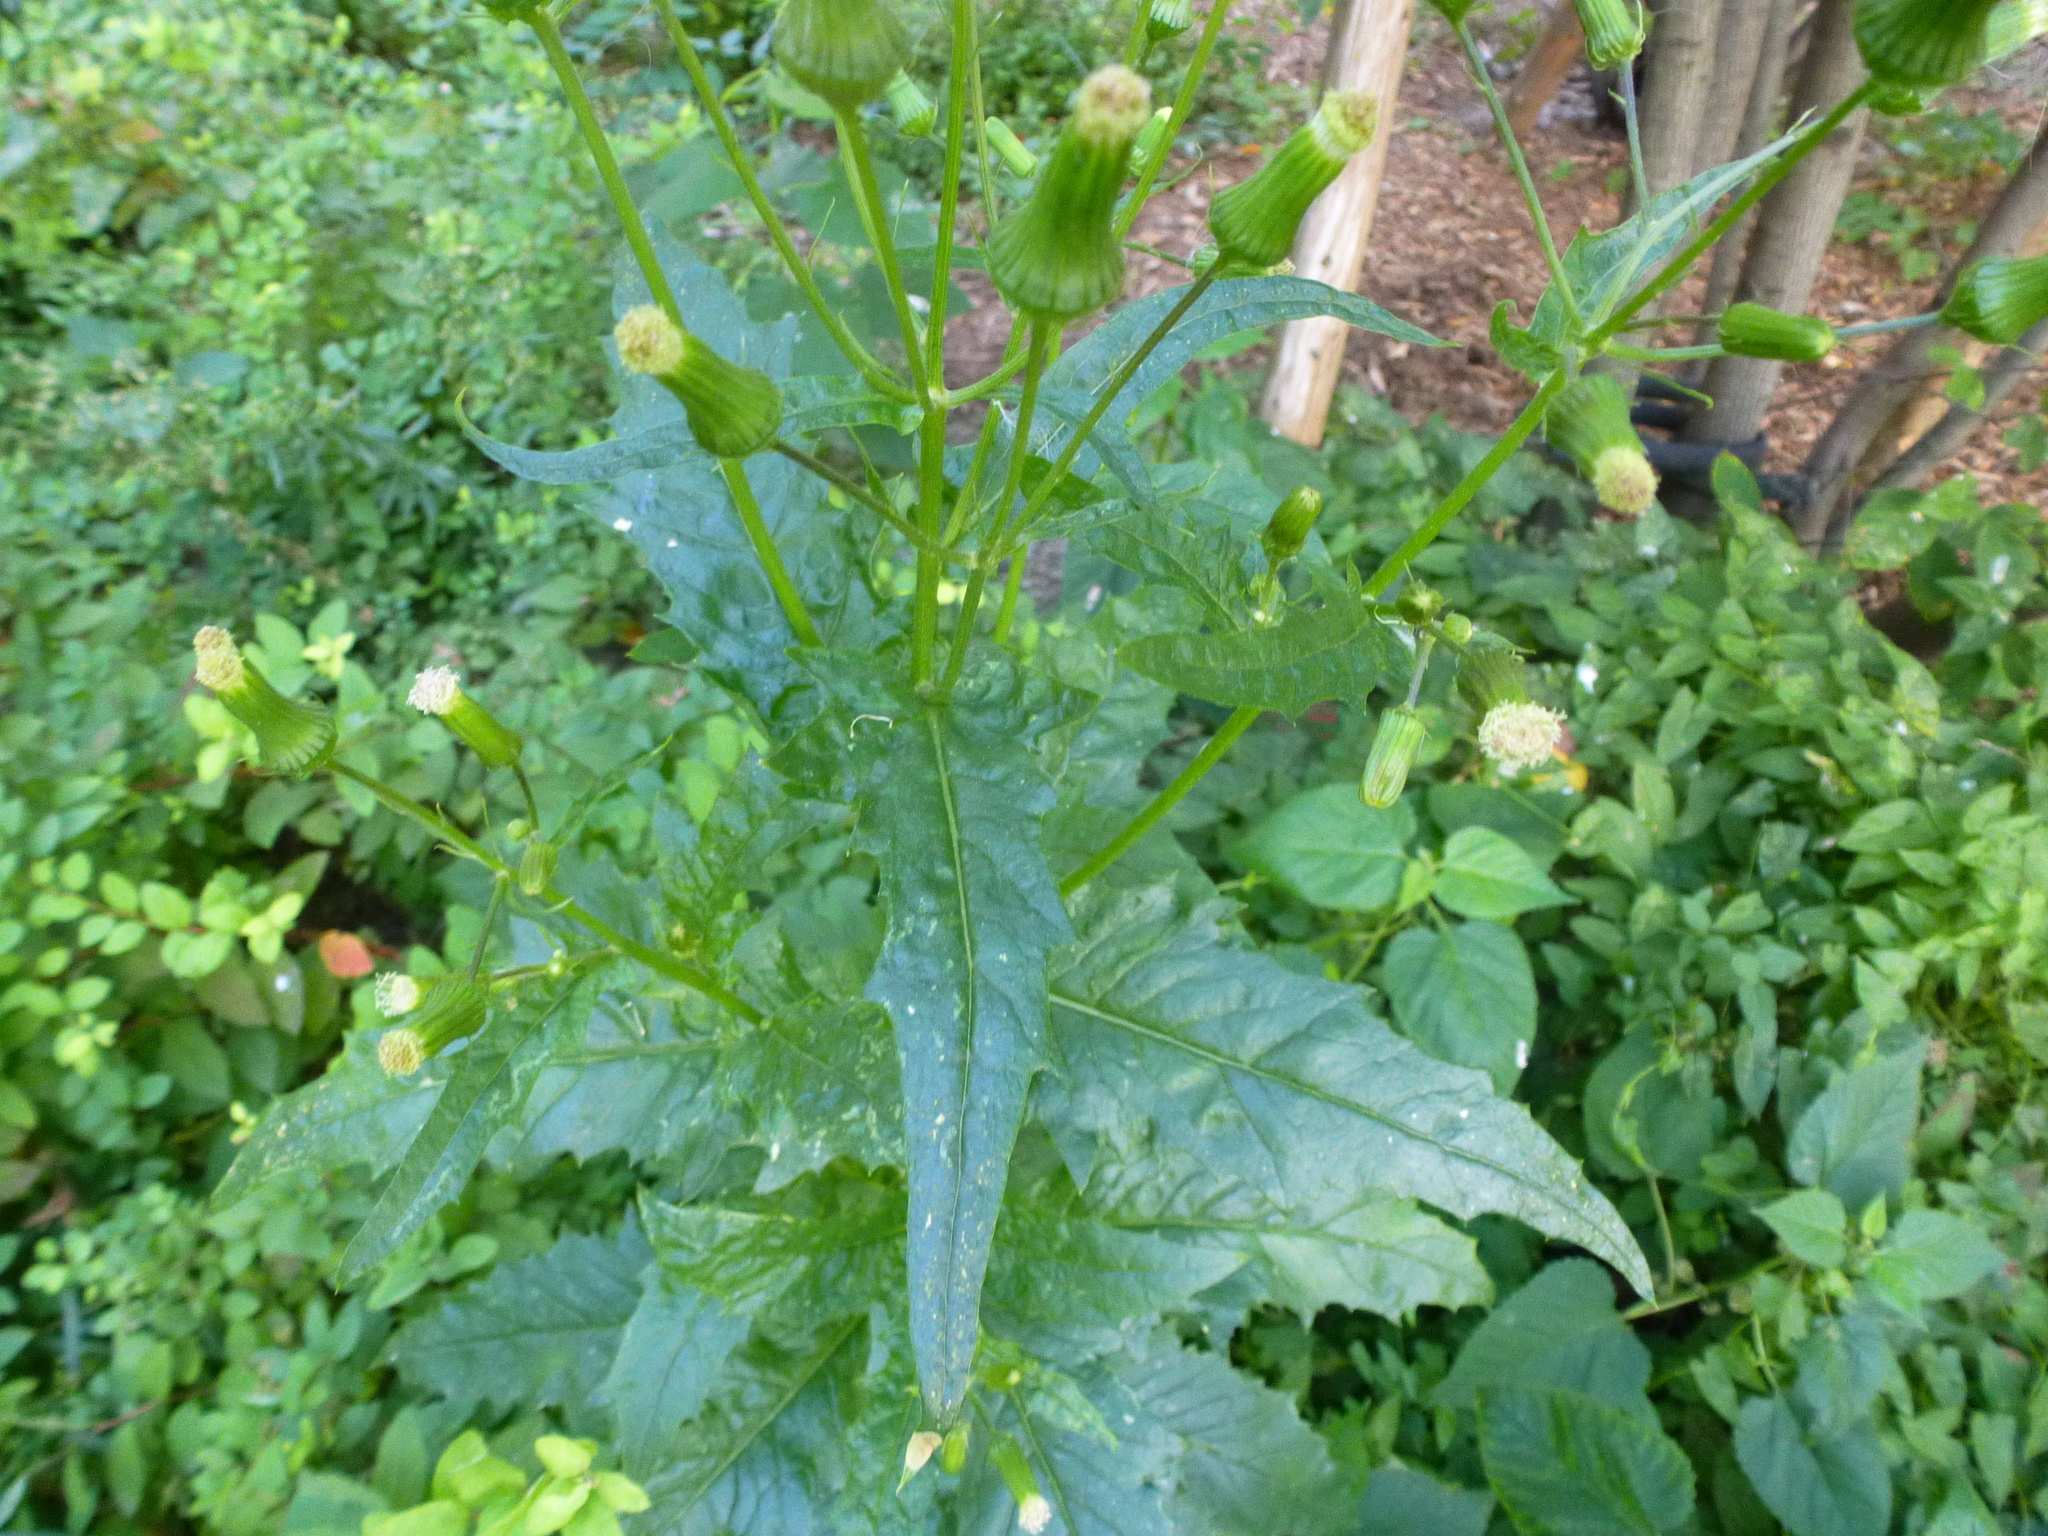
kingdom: Plantae
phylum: Tracheophyta
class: Magnoliopsida
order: Asterales
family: Asteraceae
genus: Erechtites
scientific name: Erechtites hieraciifolius
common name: American burnweed
